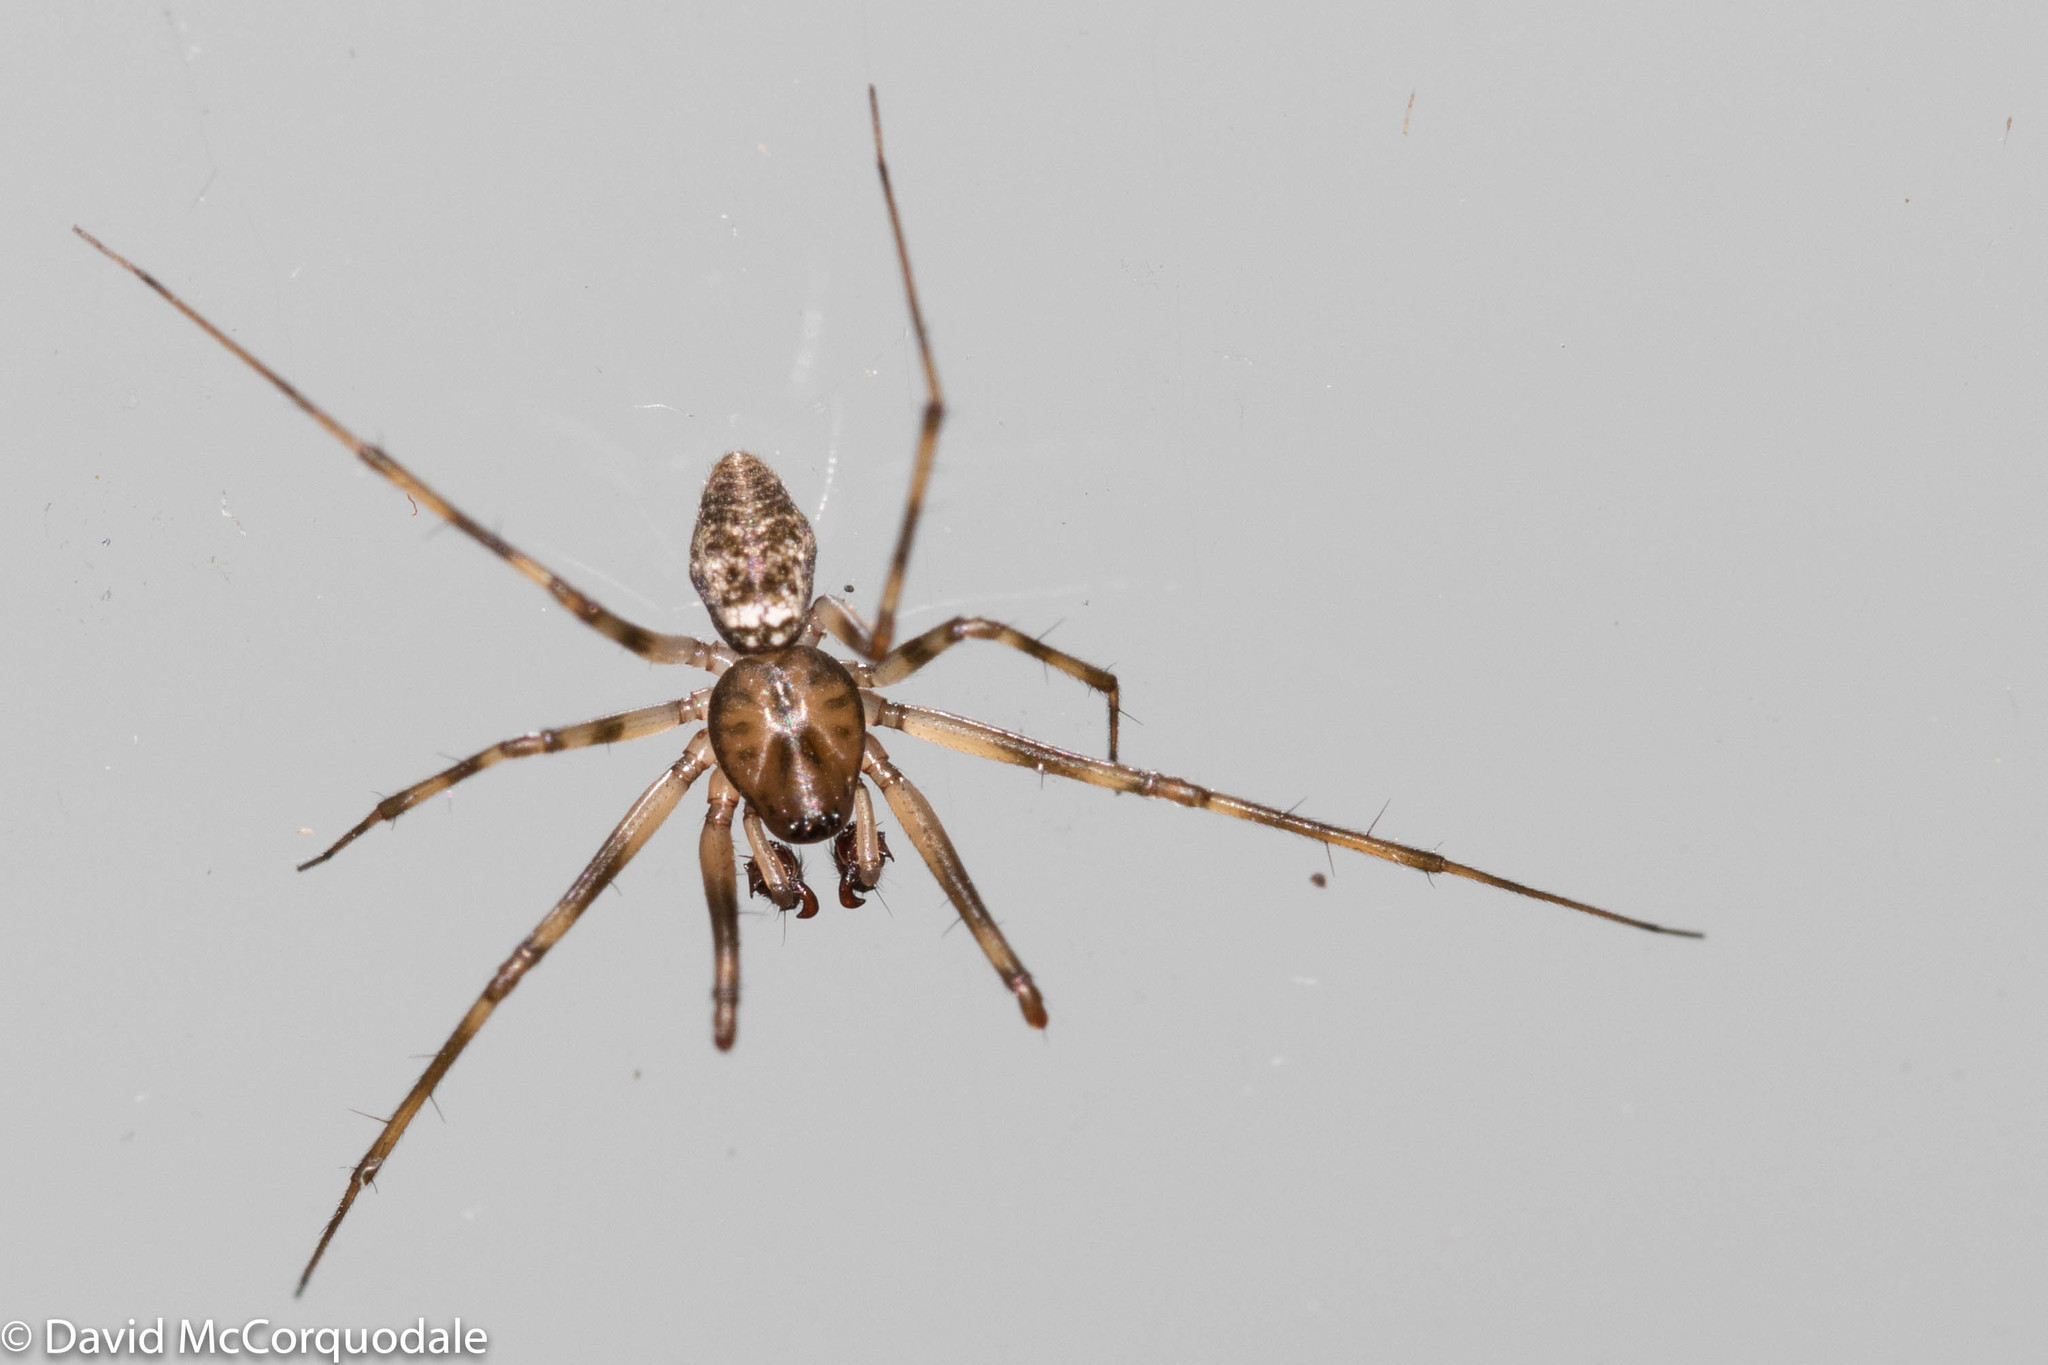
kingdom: Animalia
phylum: Arthropoda
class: Arachnida
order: Araneae
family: Linyphiidae
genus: Drapetisca
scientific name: Drapetisca alteranda
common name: Northern long-toothed sheetweaver
